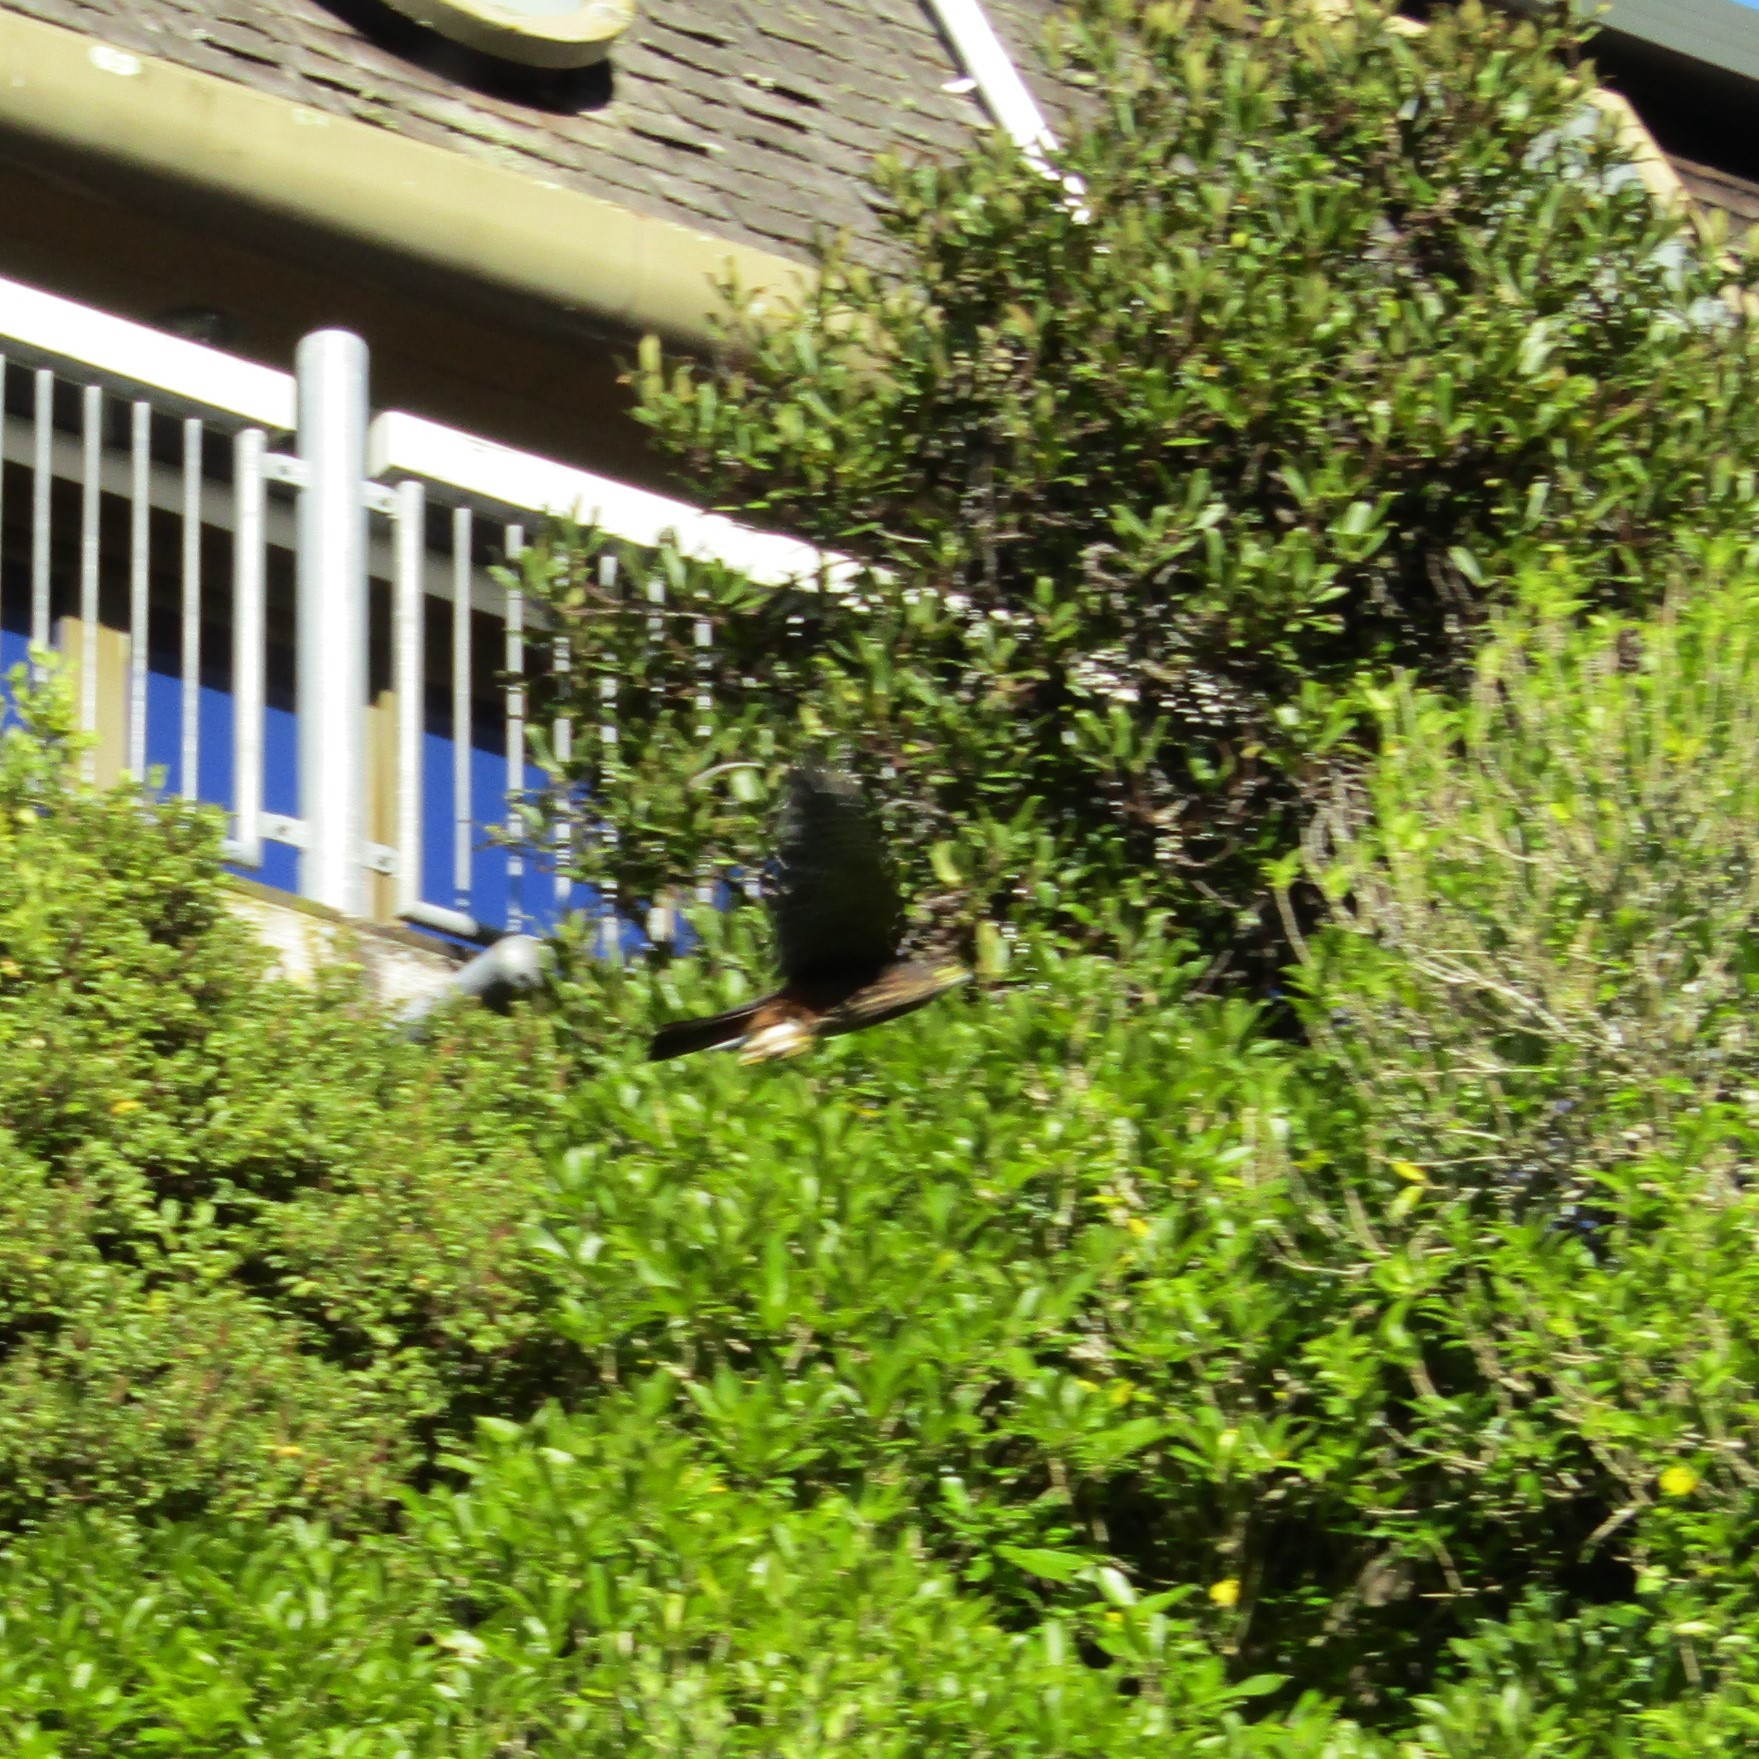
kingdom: Animalia
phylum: Chordata
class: Aves
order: Falconiformes
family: Falconidae
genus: Falco
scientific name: Falco novaeseelandiae
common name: New zealand falcon
